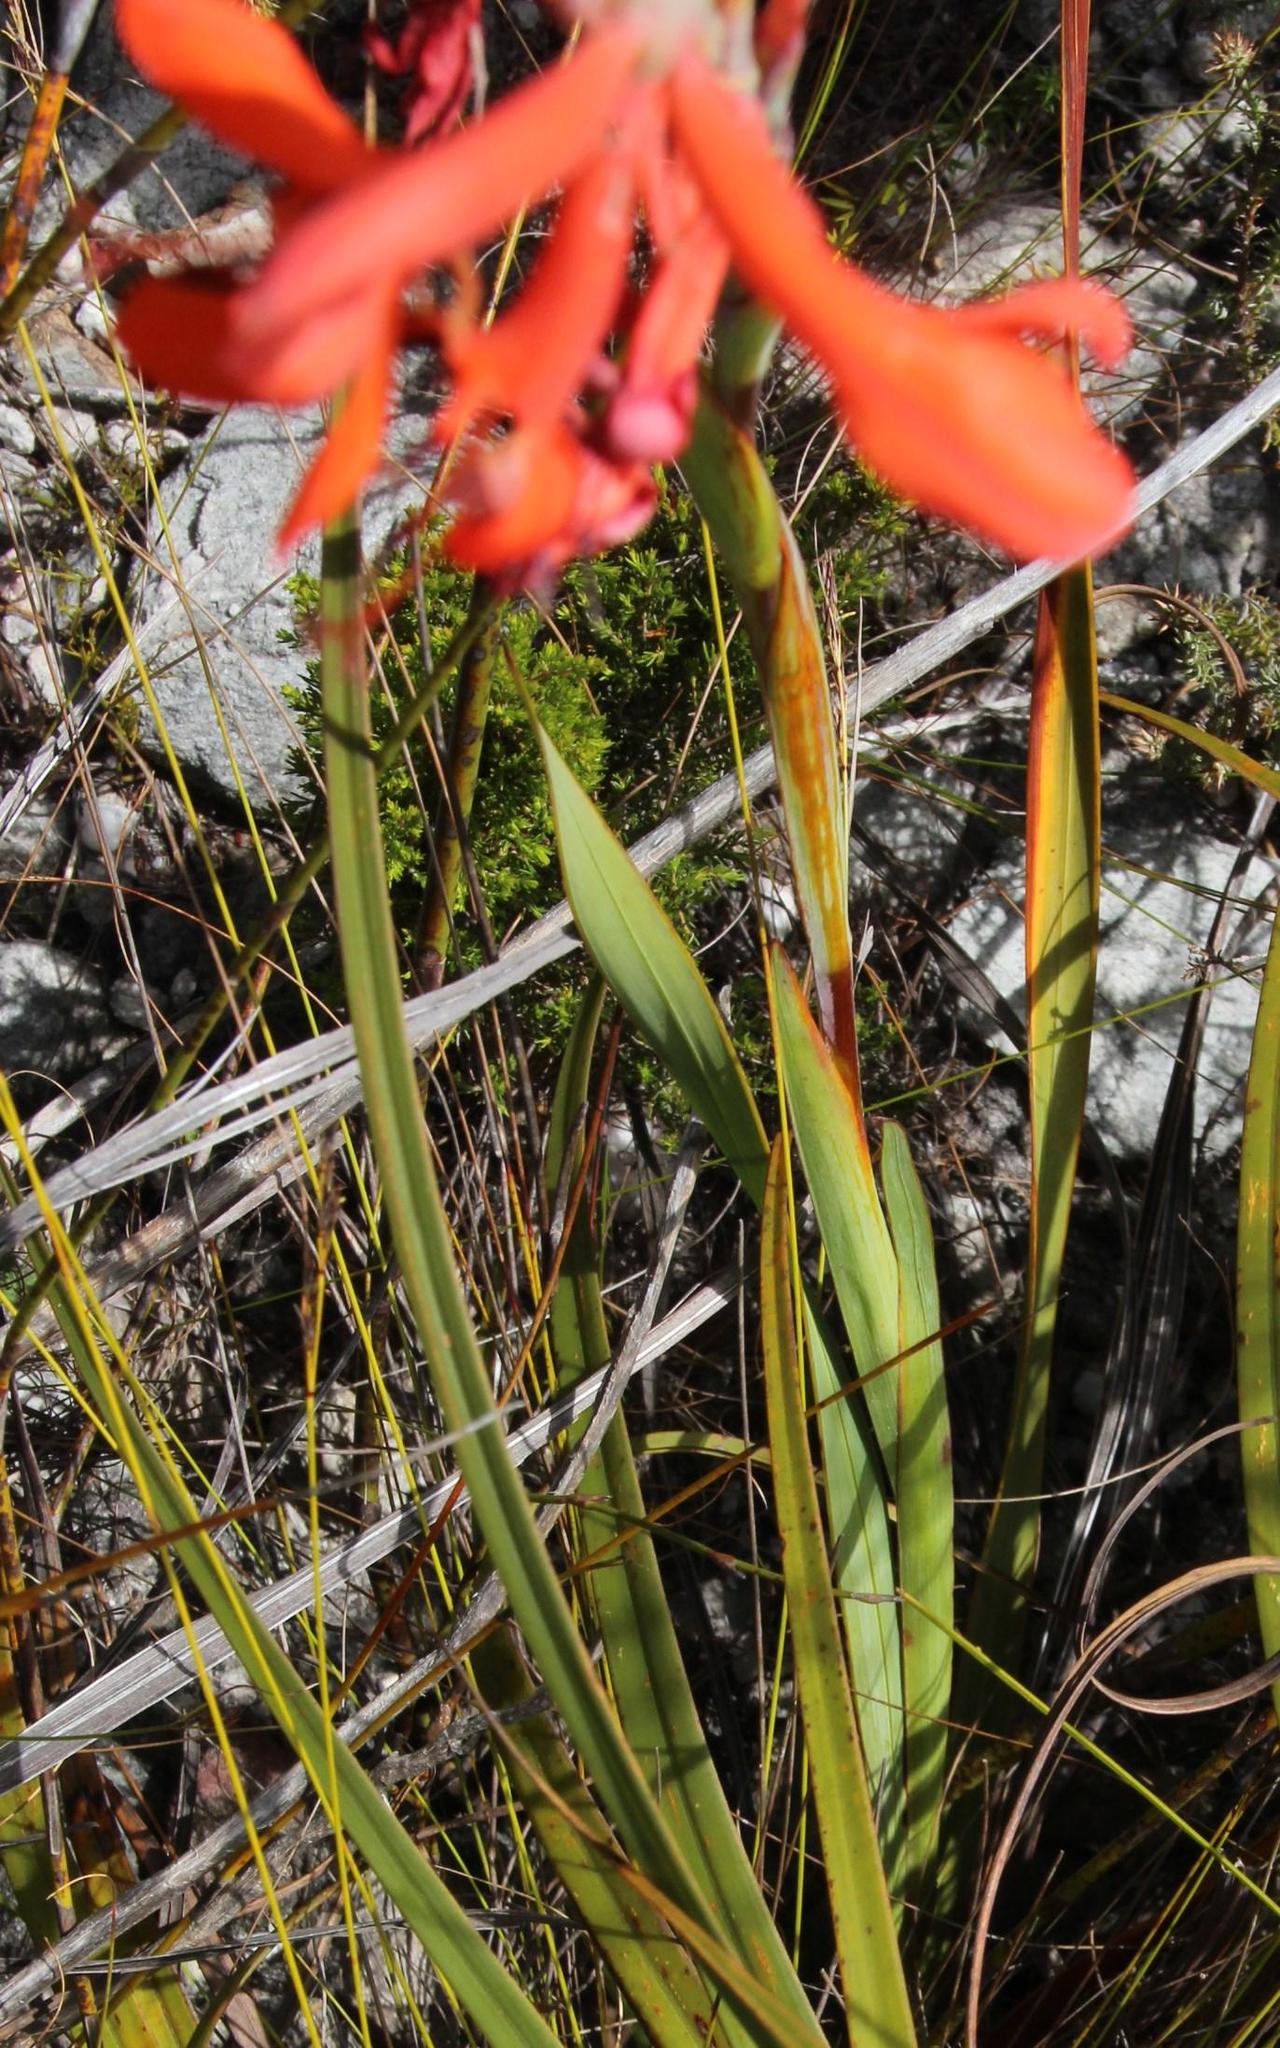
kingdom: Plantae
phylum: Tracheophyta
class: Liliopsida
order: Asparagales
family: Iridaceae
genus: Watsonia
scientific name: Watsonia schlechteri
